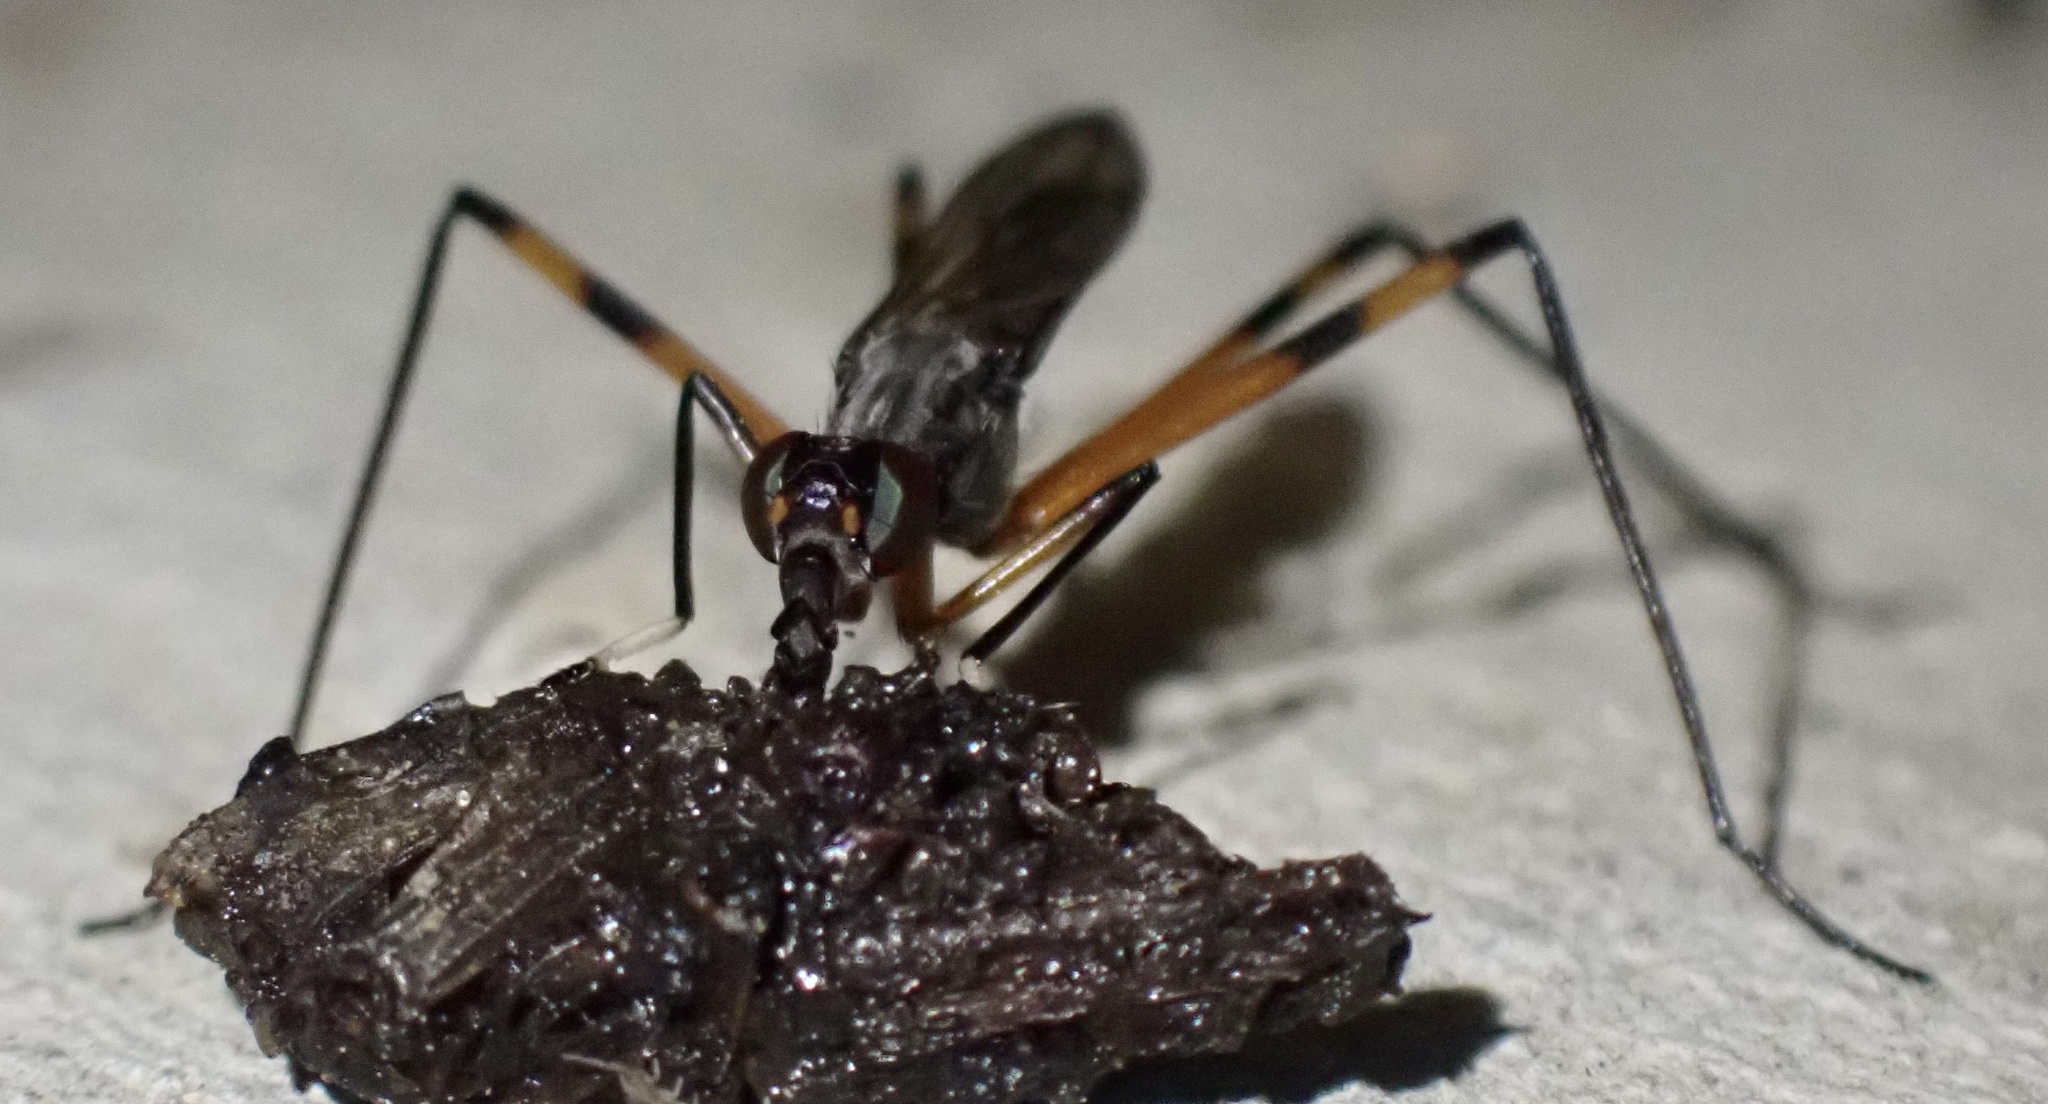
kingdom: Animalia
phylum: Arthropoda
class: Insecta
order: Diptera
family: Micropezidae
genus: Calobatina
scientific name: Calobatina geometra
